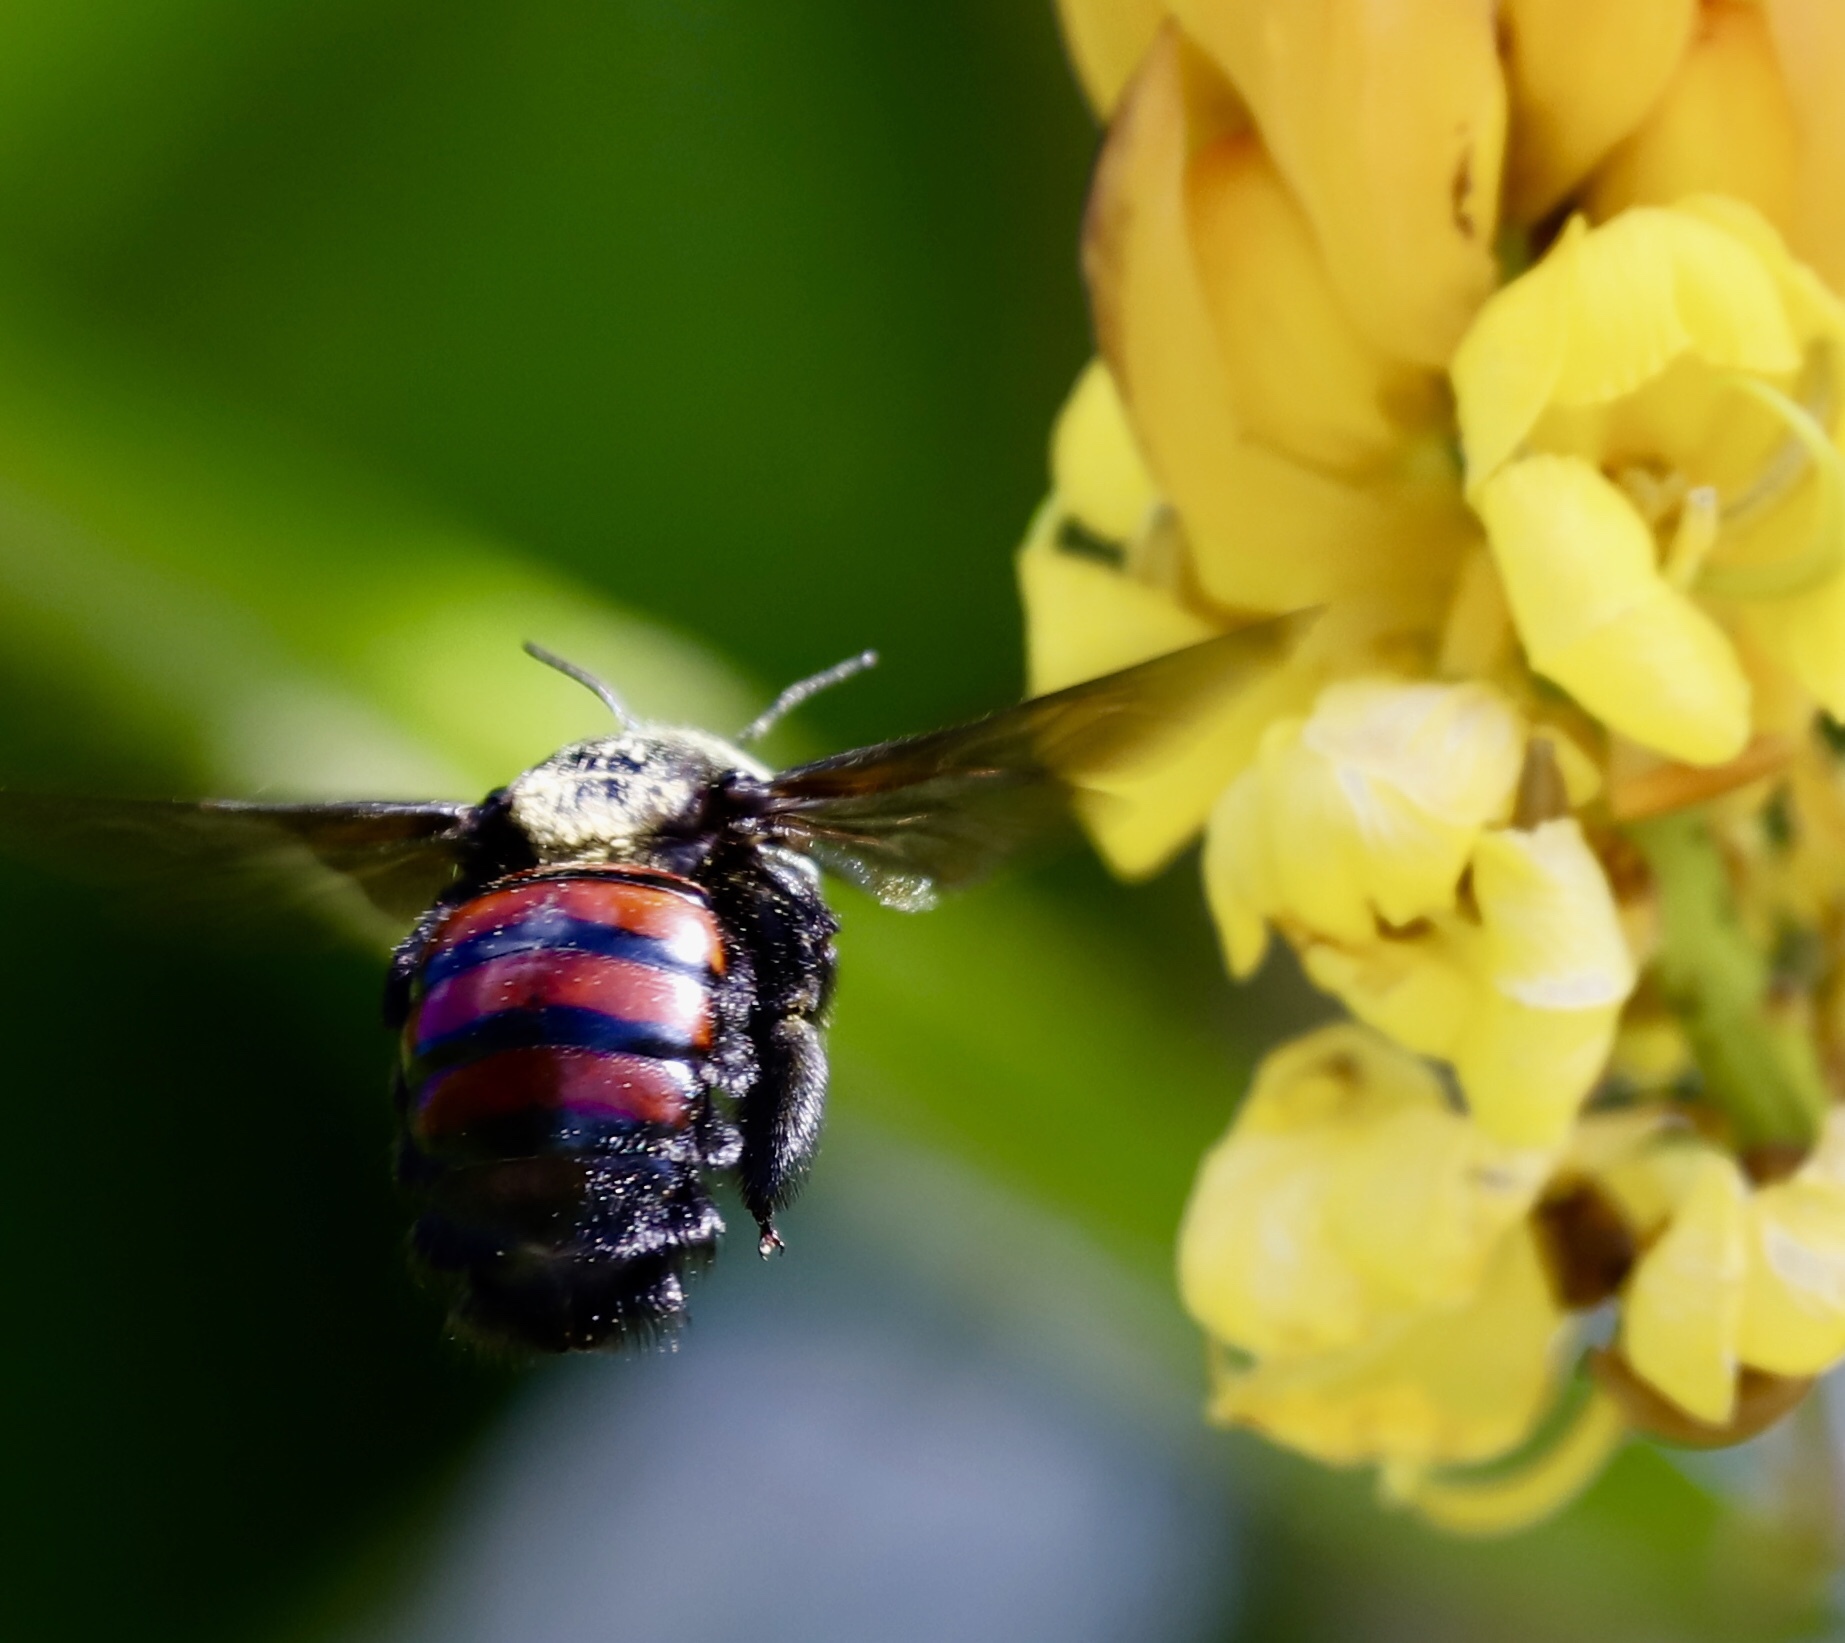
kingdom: Animalia
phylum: Arthropoda
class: Insecta
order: Hymenoptera
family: Apidae
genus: Xylocopa
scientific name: Xylocopa frontalis
